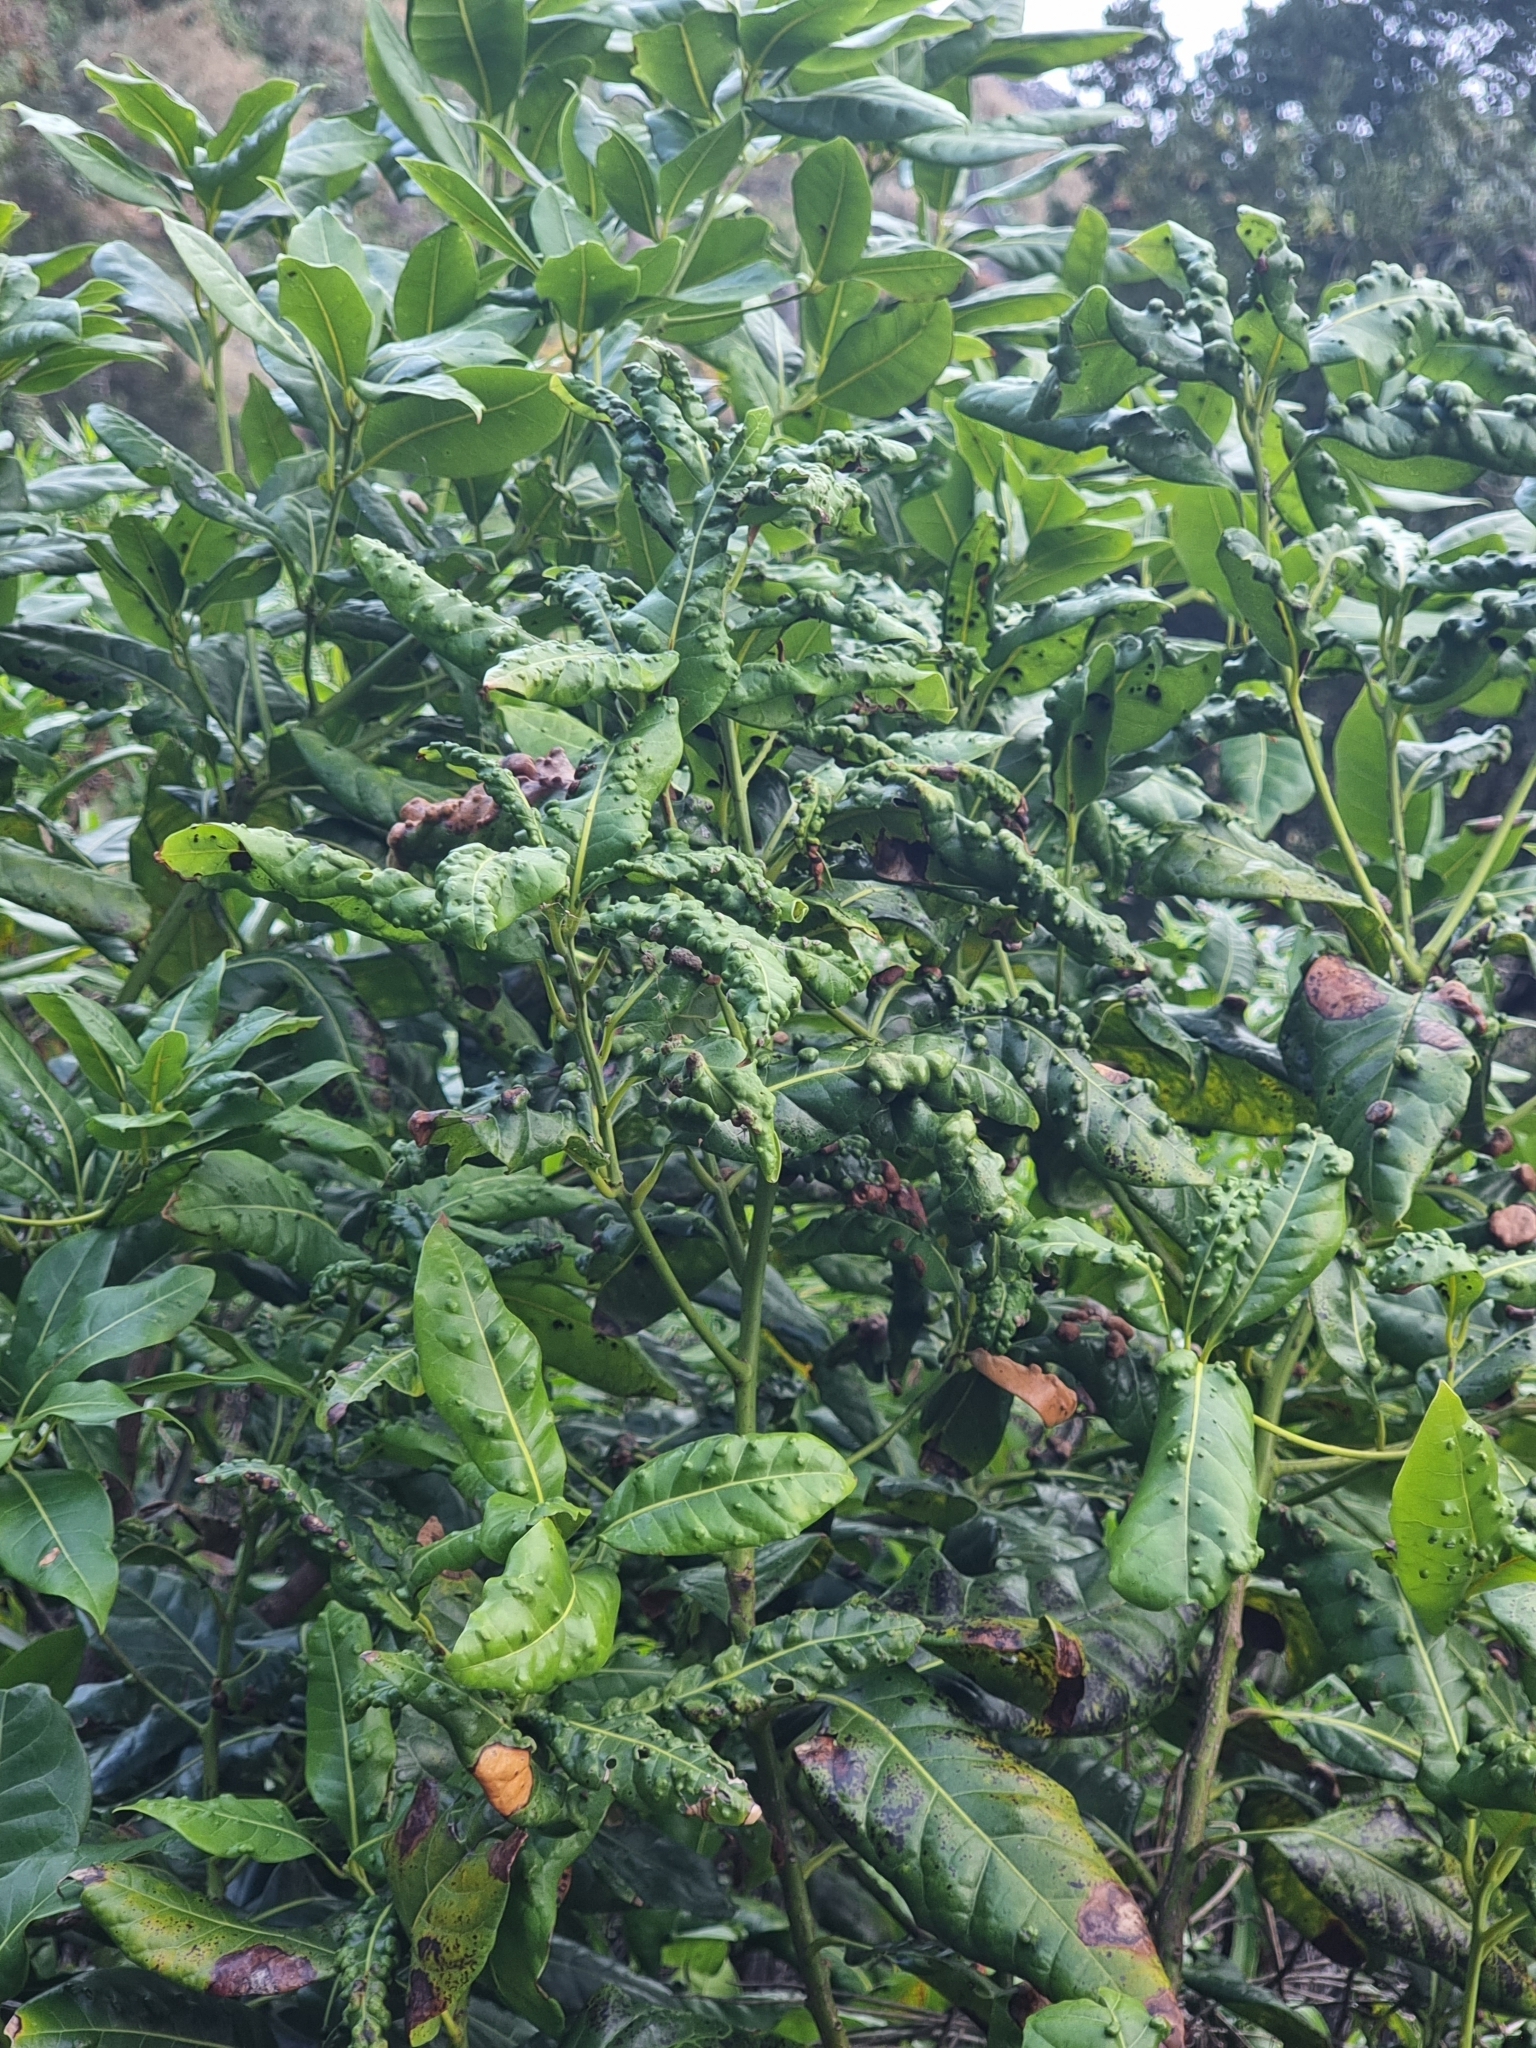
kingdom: Plantae
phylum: Tracheophyta
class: Magnoliopsida
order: Laurales
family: Lauraceae
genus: Apollonias
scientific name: Apollonias barbujana
